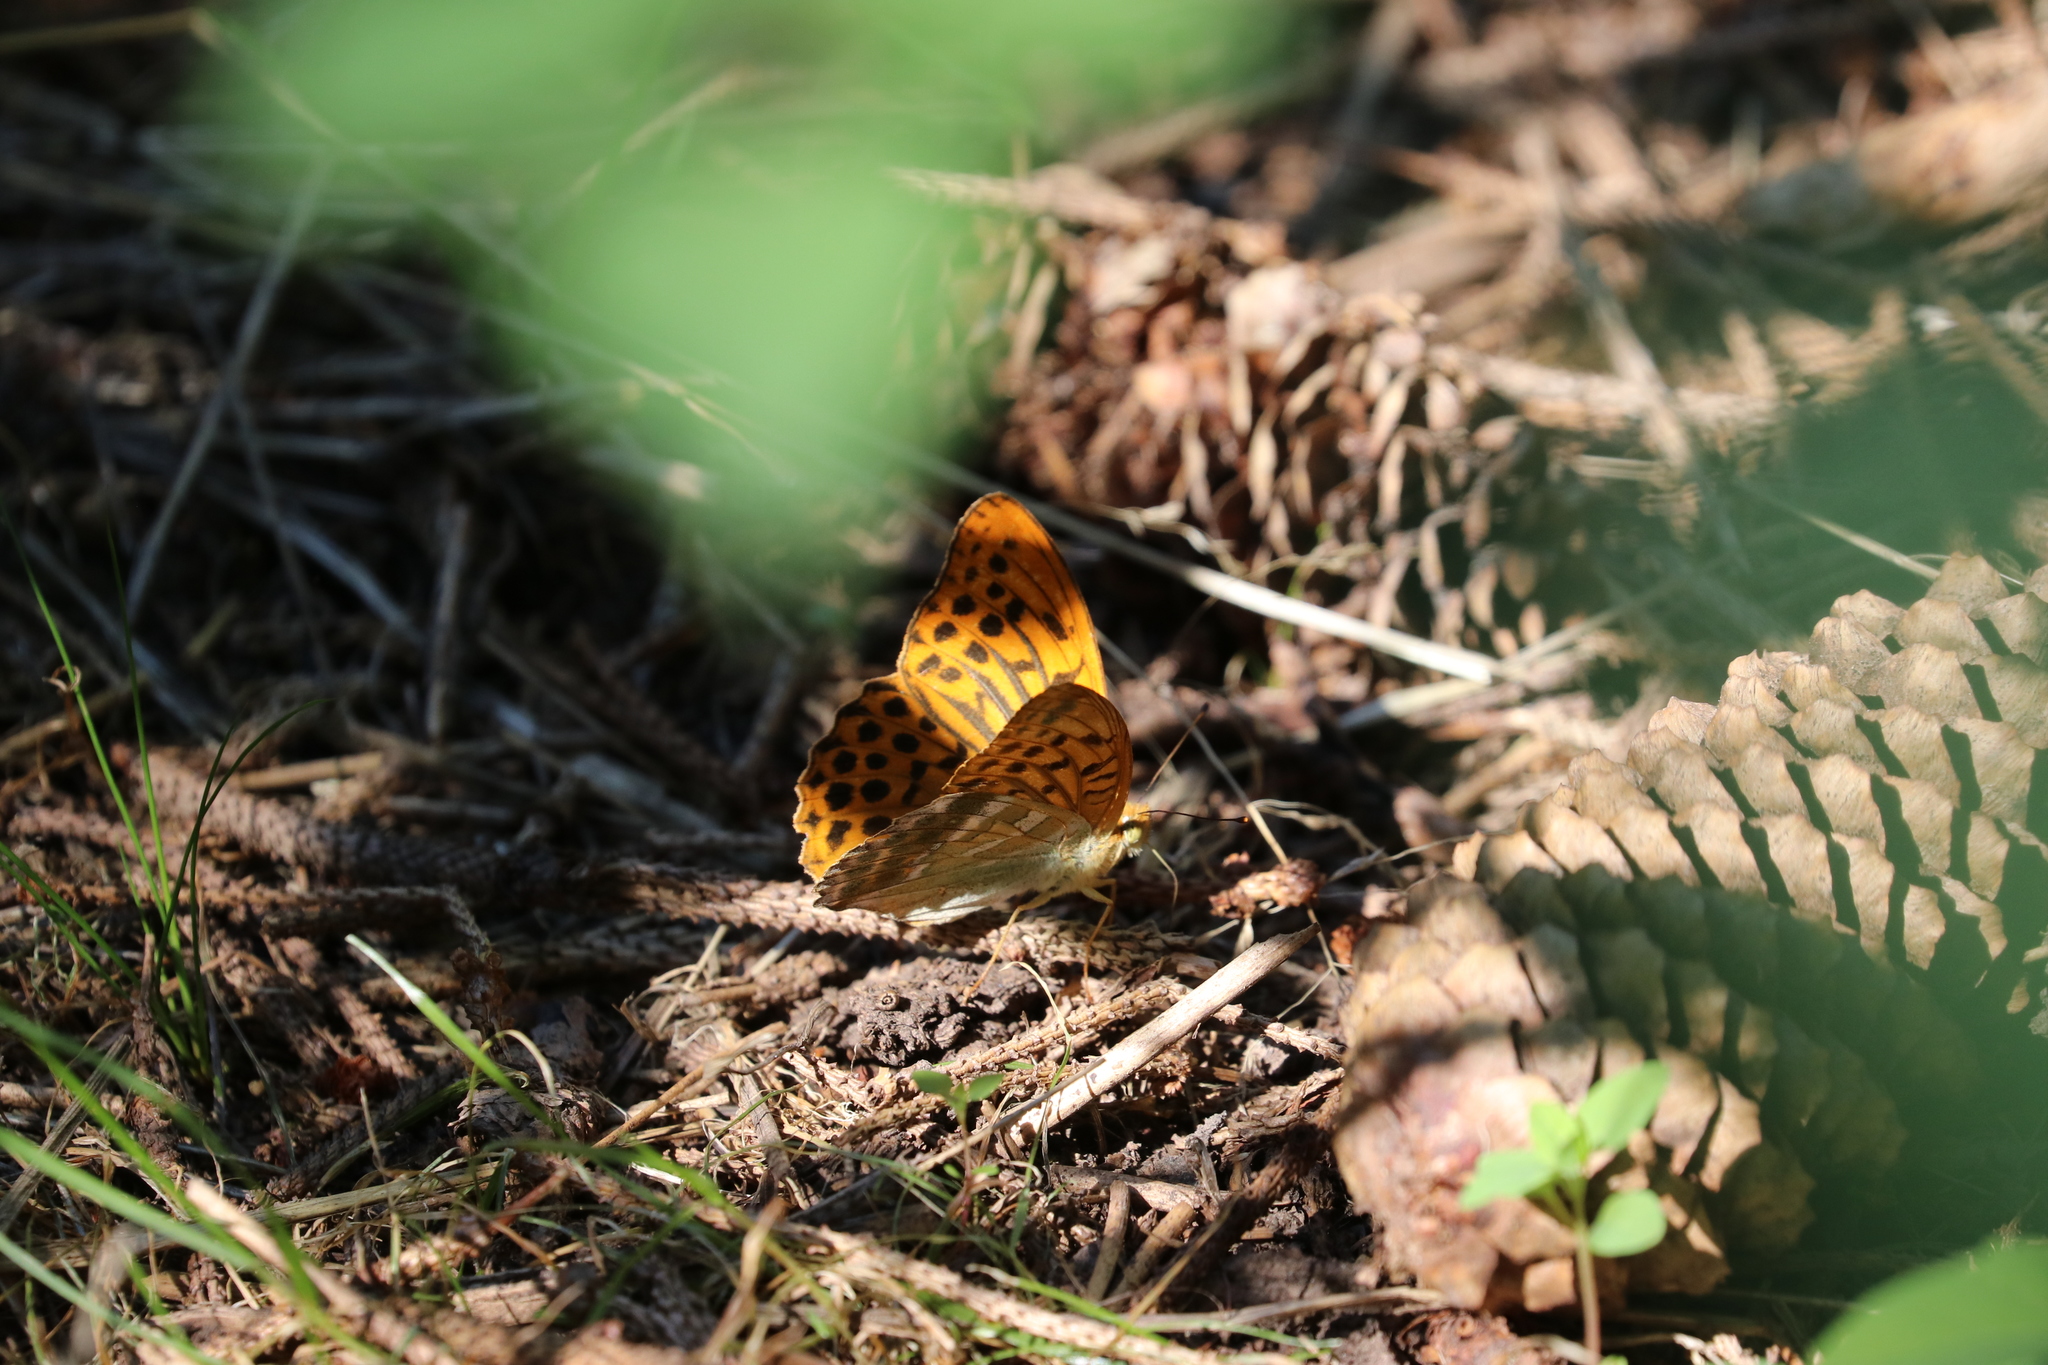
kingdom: Animalia
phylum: Arthropoda
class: Insecta
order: Lepidoptera
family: Nymphalidae
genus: Argynnis
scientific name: Argynnis paphia
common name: Silver-washed fritillary
